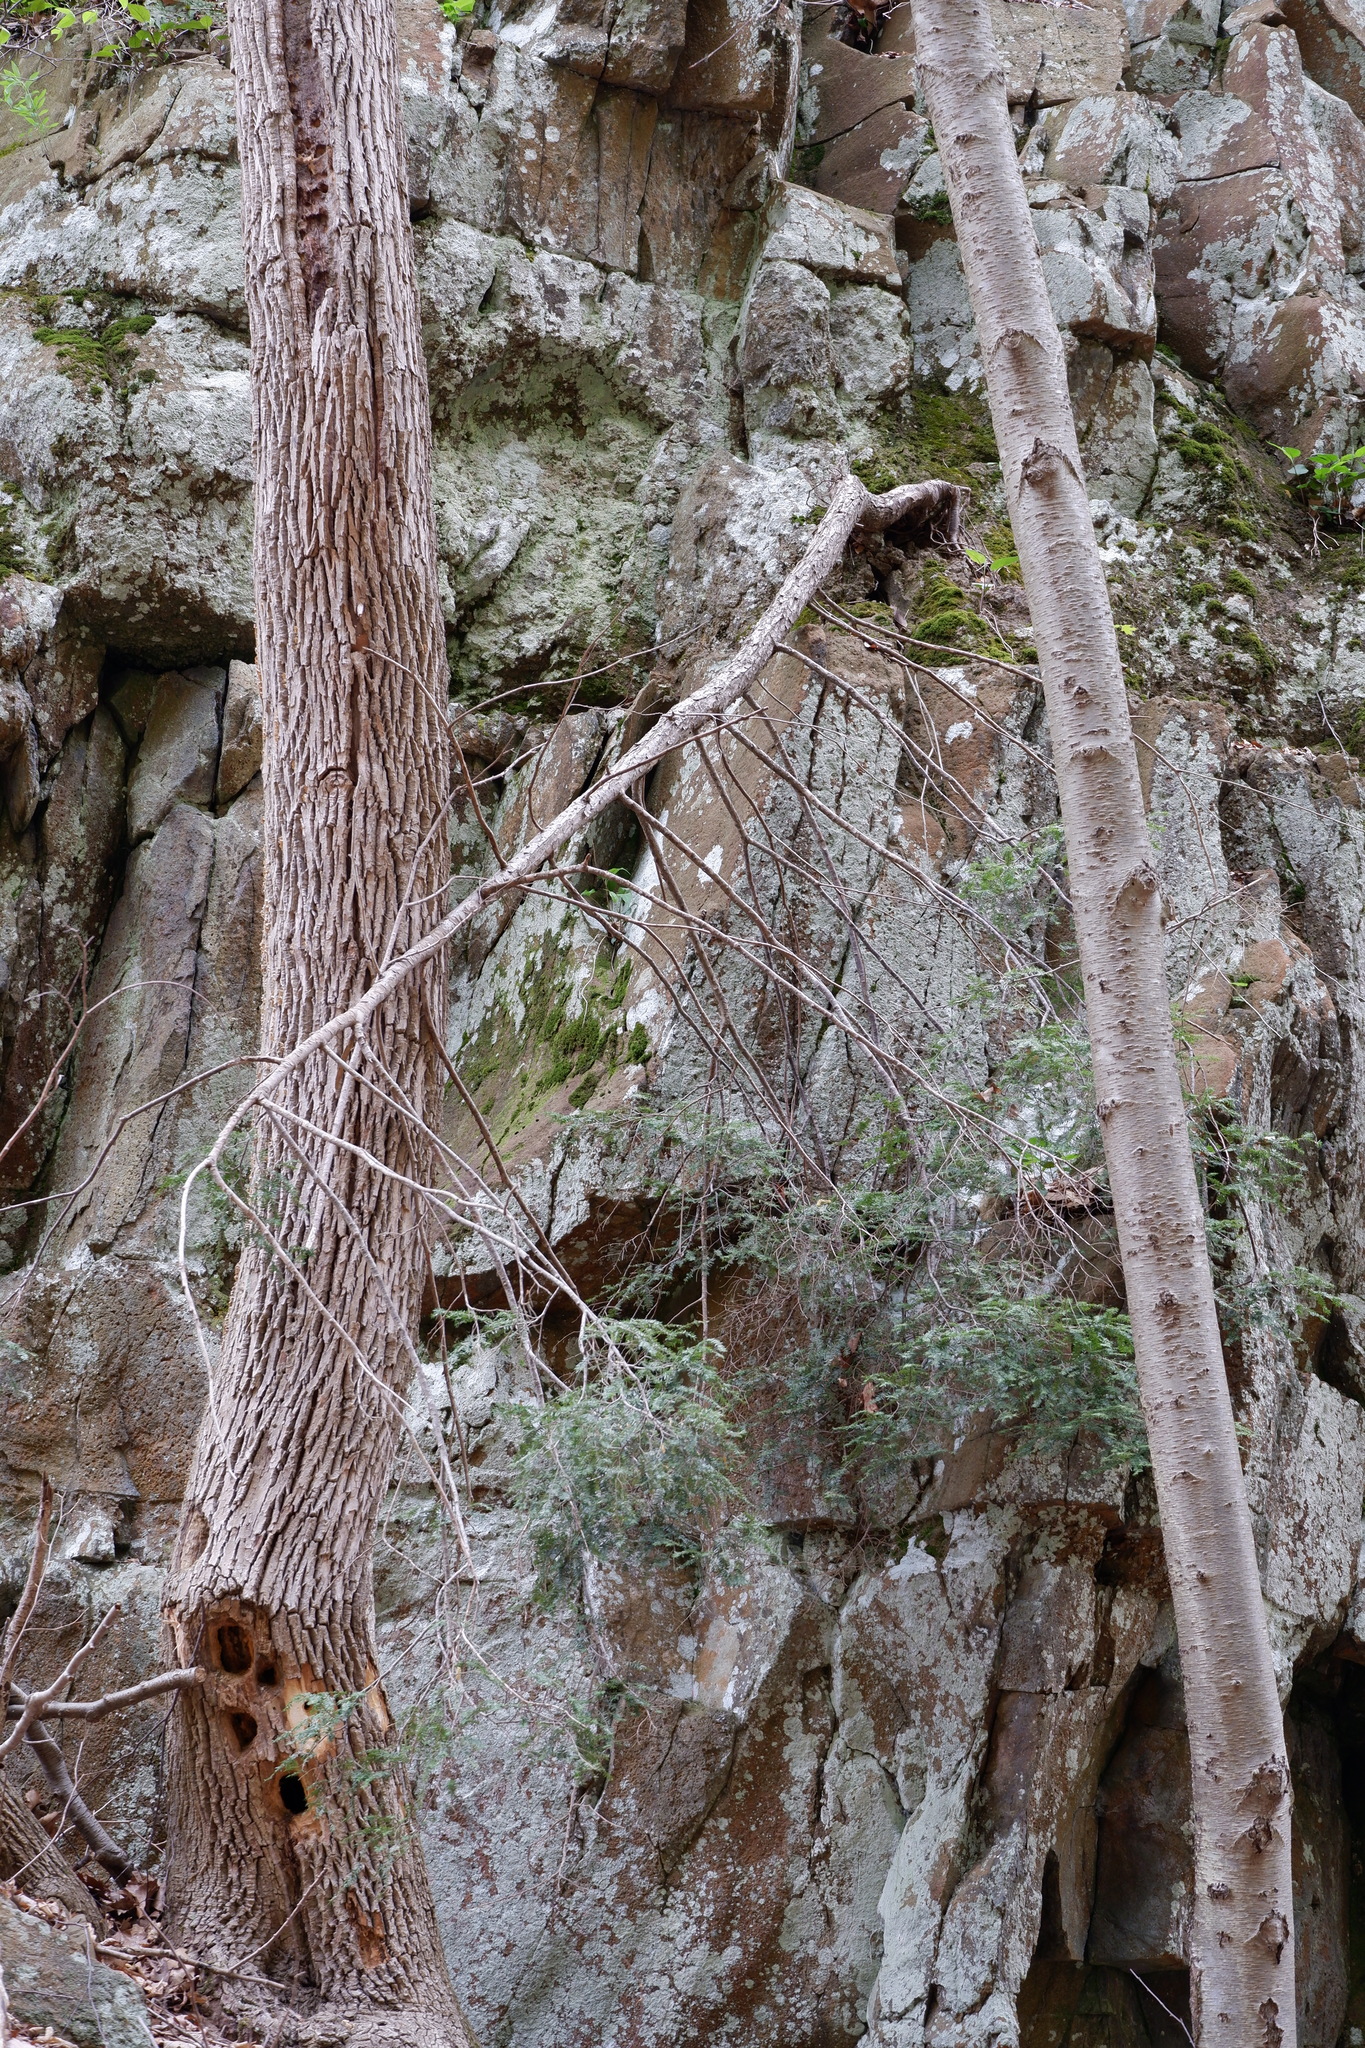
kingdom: Plantae
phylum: Tracheophyta
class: Pinopsida
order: Pinales
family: Pinaceae
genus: Tsuga
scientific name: Tsuga canadensis
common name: Eastern hemlock
